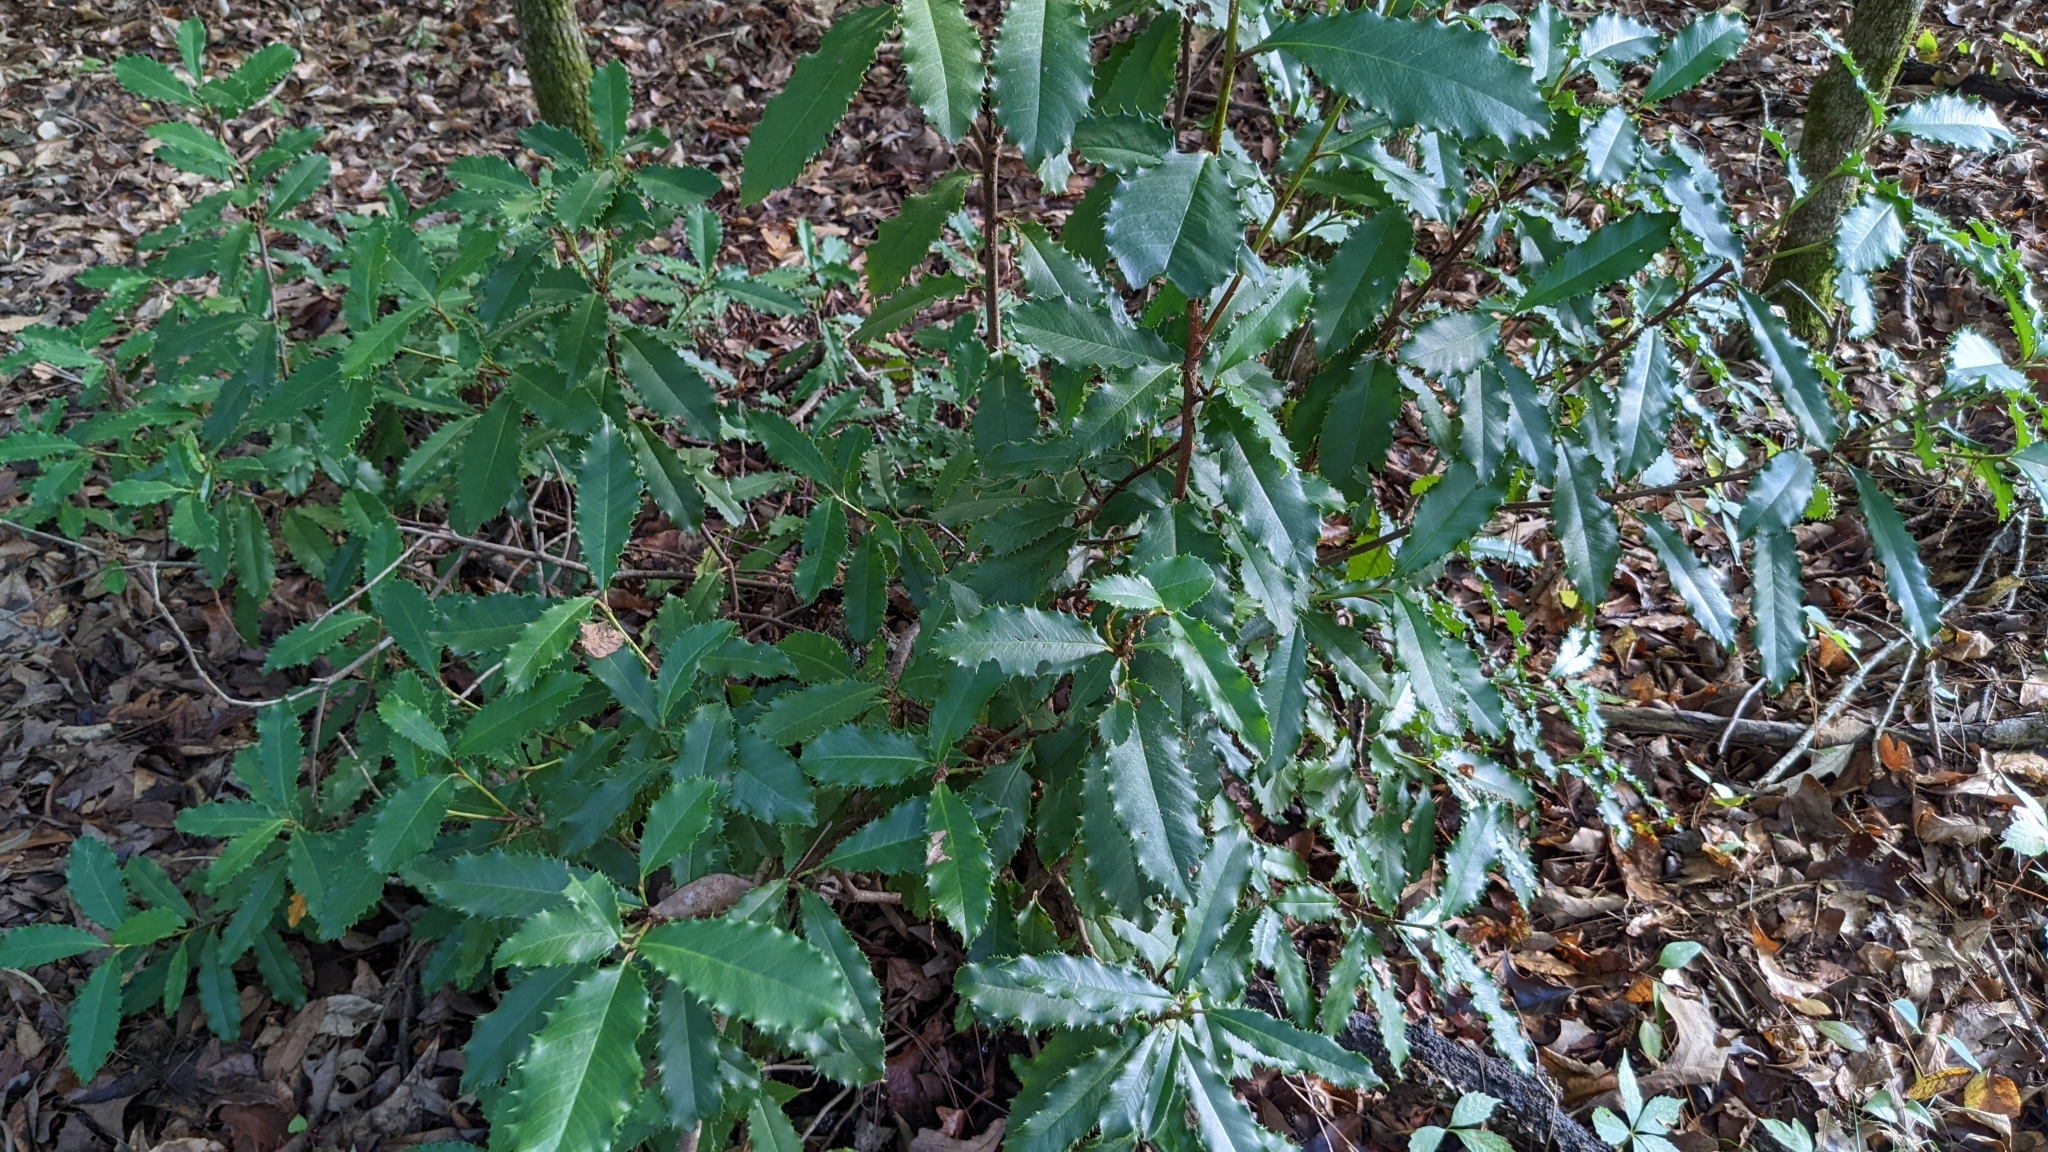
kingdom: Plantae
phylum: Tracheophyta
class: Magnoliopsida
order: Rosales
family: Rosaceae
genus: Photinia
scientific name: Photinia serratifolia
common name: Taiwanese photinia
